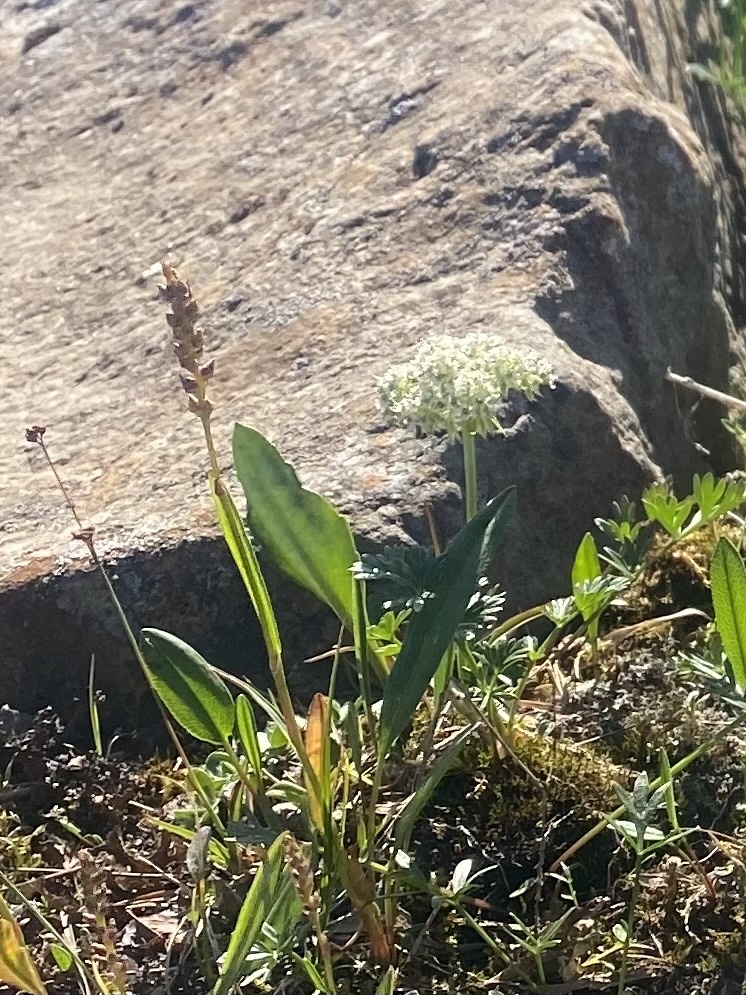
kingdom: Plantae
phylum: Tracheophyta
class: Magnoliopsida
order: Apiales
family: Apiaceae
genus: Pachypleurum
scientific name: Pachypleurum mutellinoides
